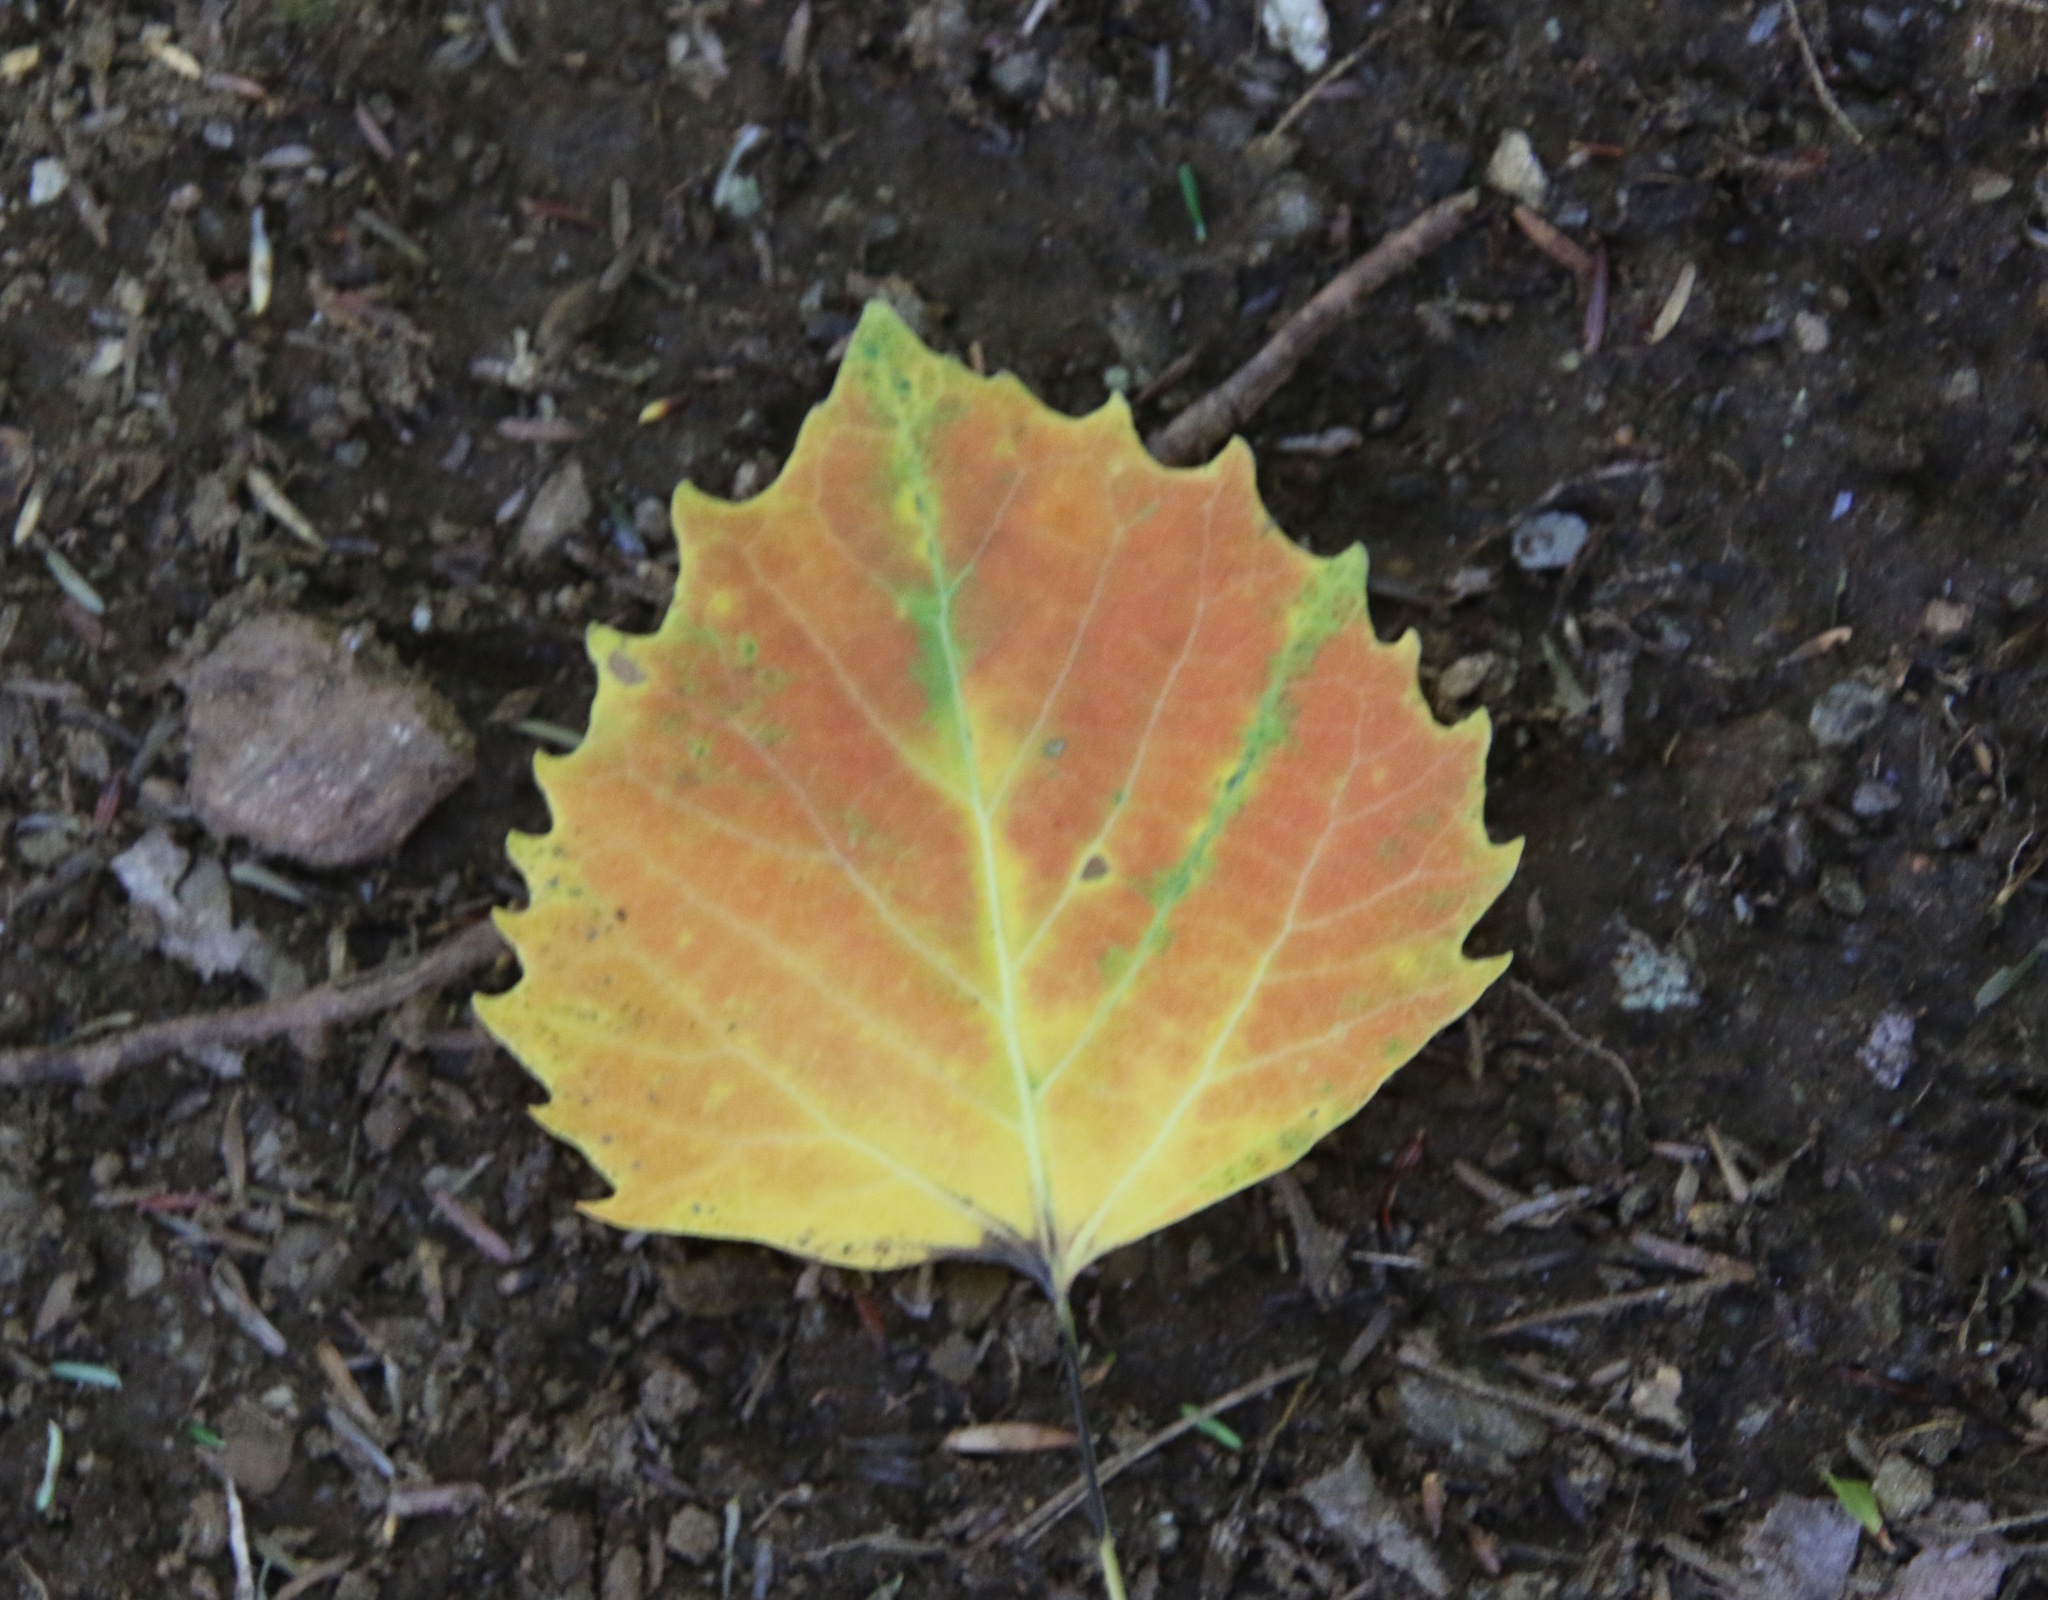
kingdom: Plantae
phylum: Tracheophyta
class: Magnoliopsida
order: Malpighiales
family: Salicaceae
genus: Populus
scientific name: Populus grandidentata
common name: Bigtooth aspen
